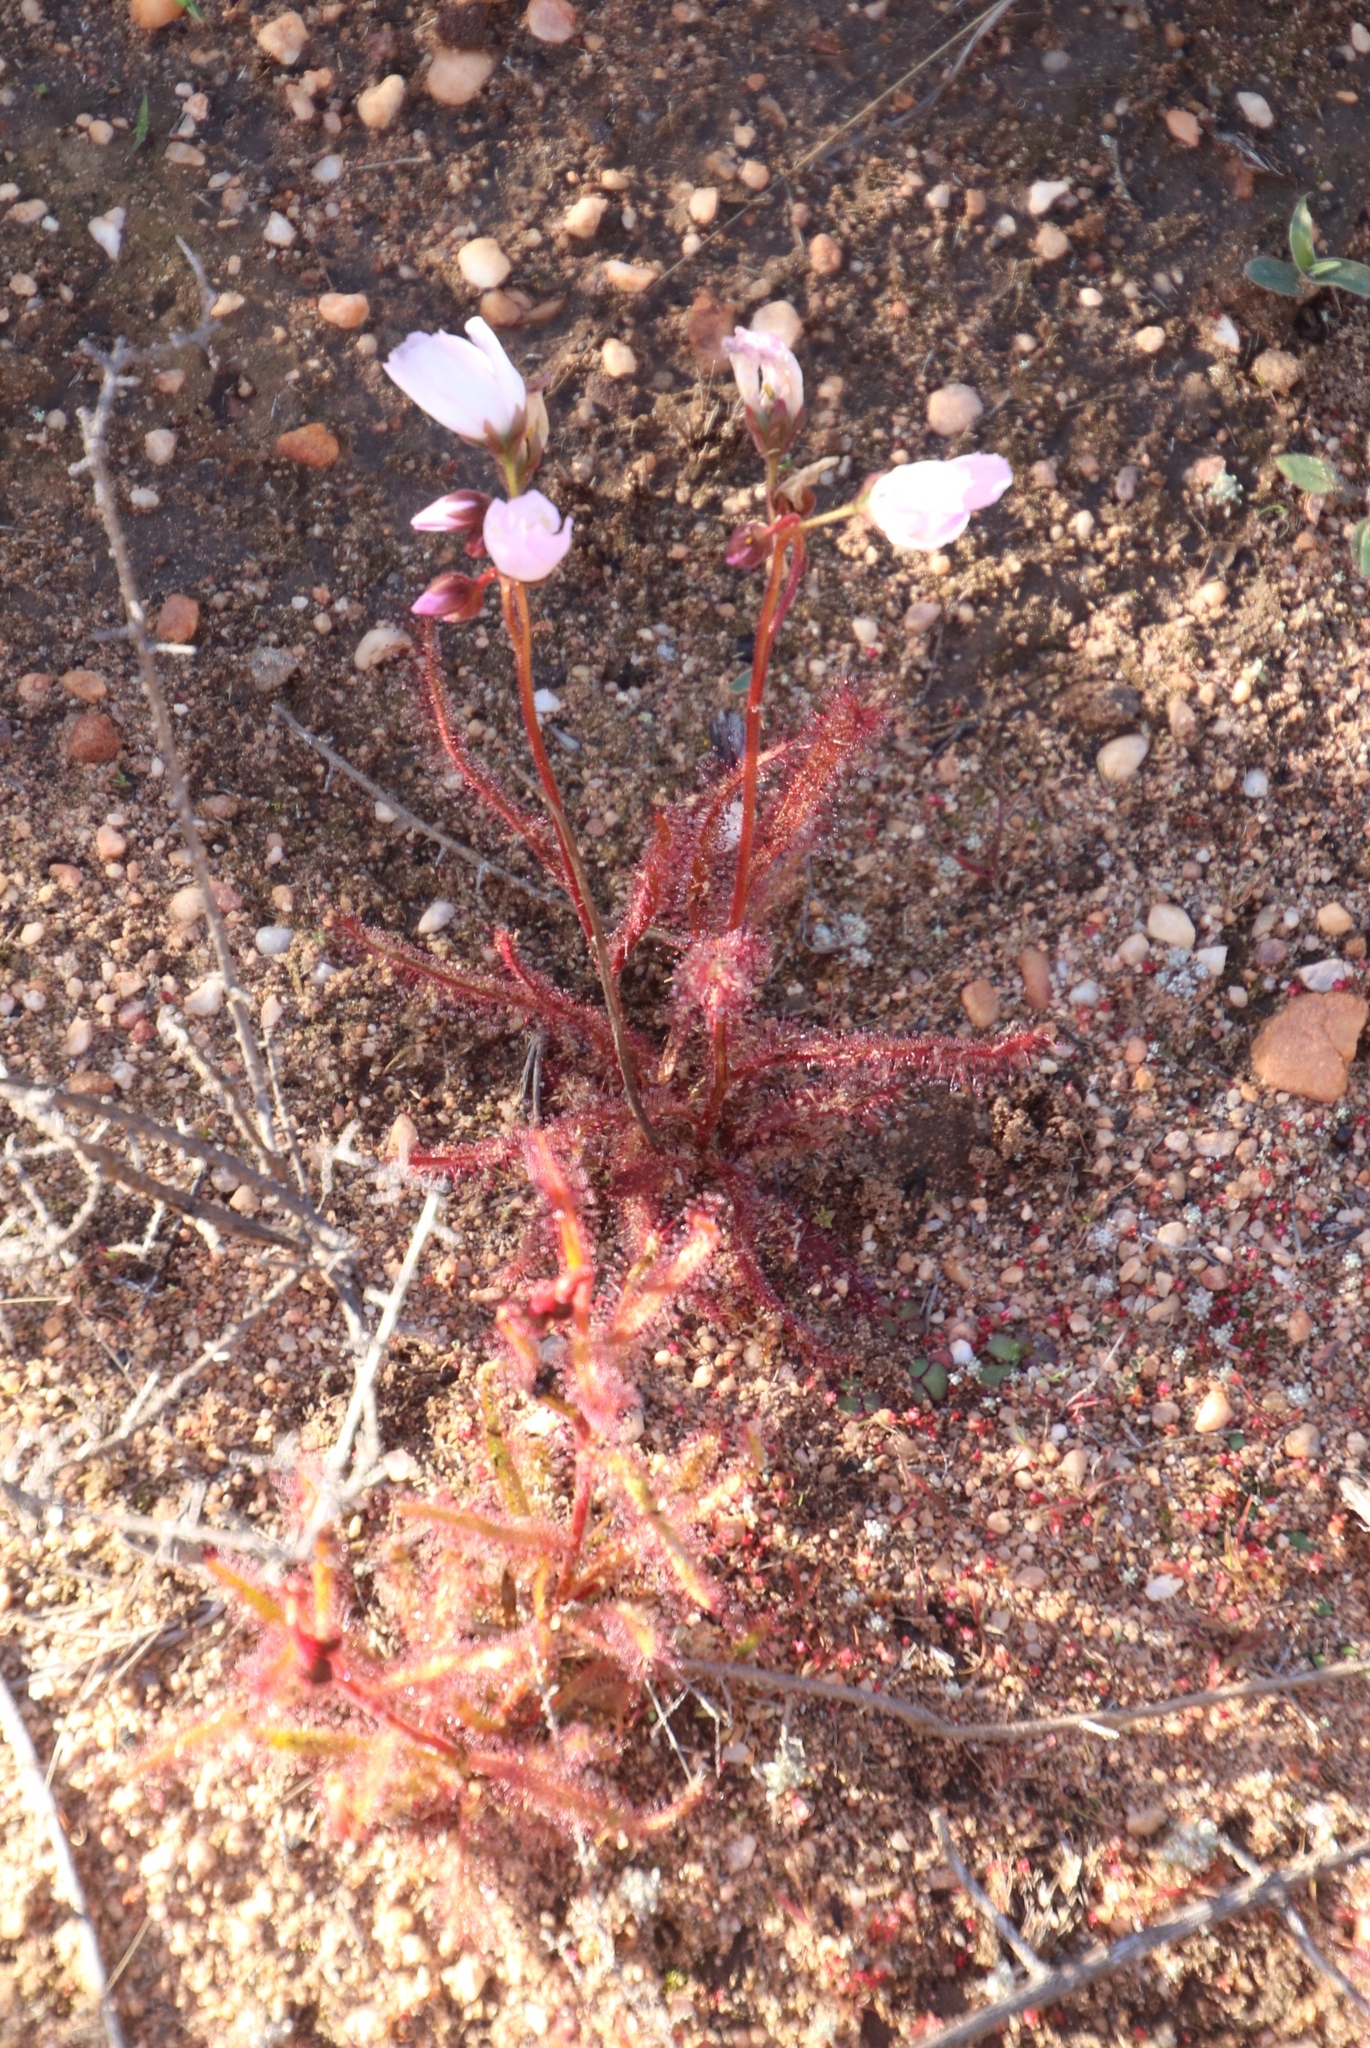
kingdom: Plantae
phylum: Tracheophyta
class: Magnoliopsida
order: Caryophyllales
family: Droseraceae
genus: Drosera
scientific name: Drosera cistiflora
